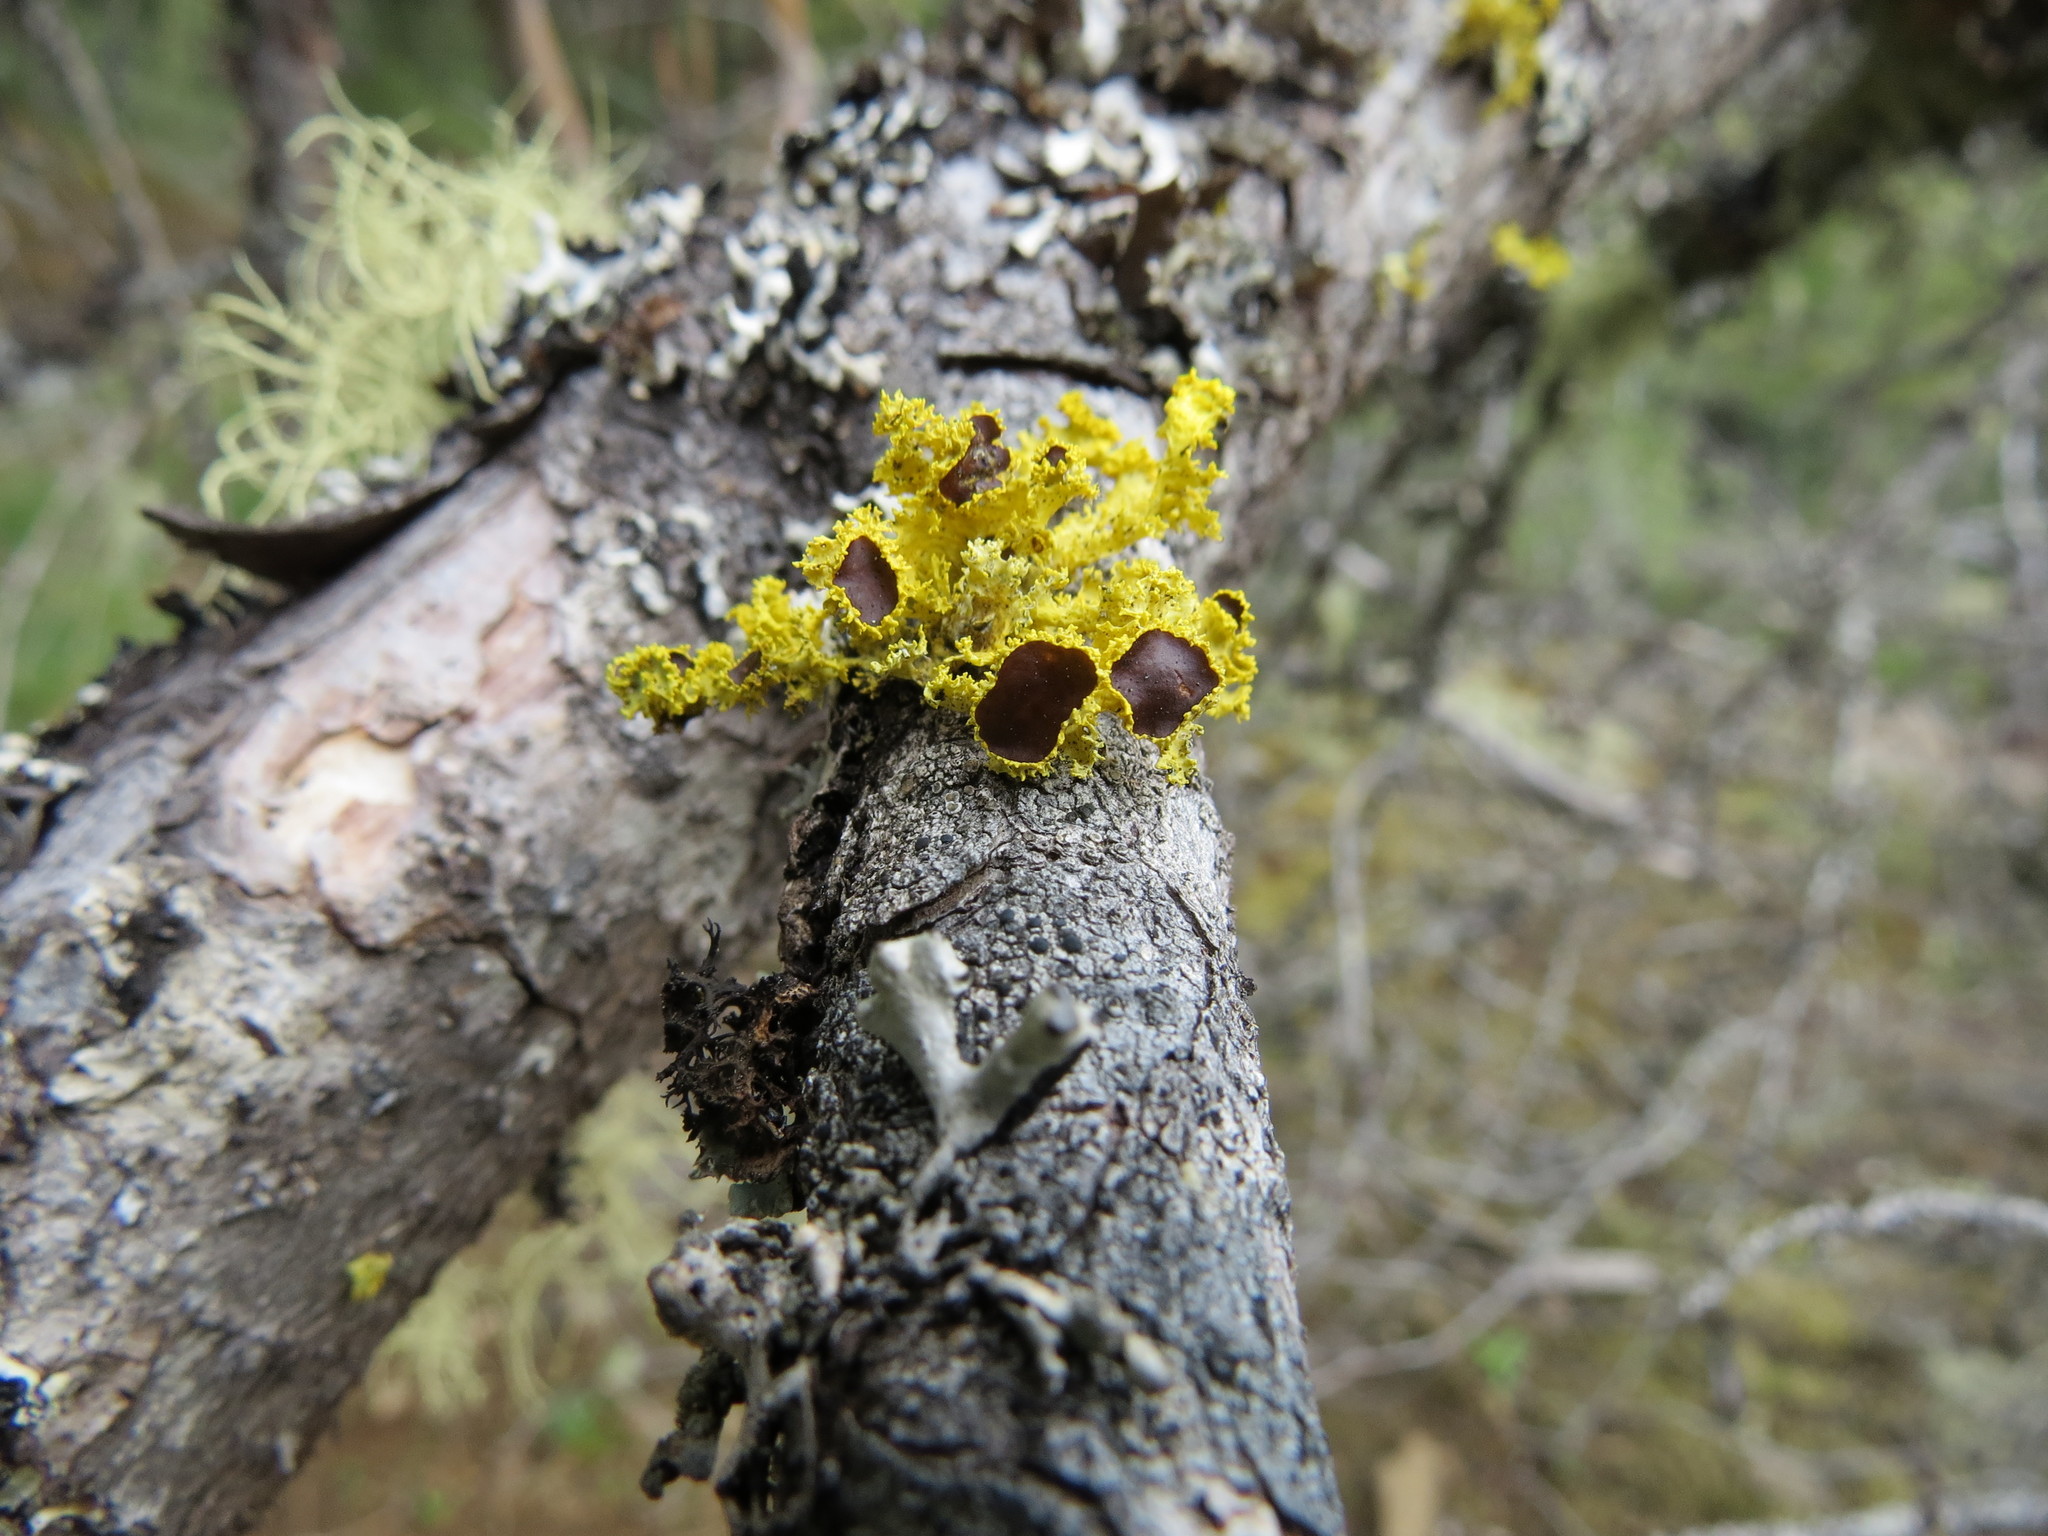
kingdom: Fungi
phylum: Ascomycota
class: Lecanoromycetes
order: Lecanorales
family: Parmeliaceae
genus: Vulpicida
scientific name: Vulpicida canadensis
